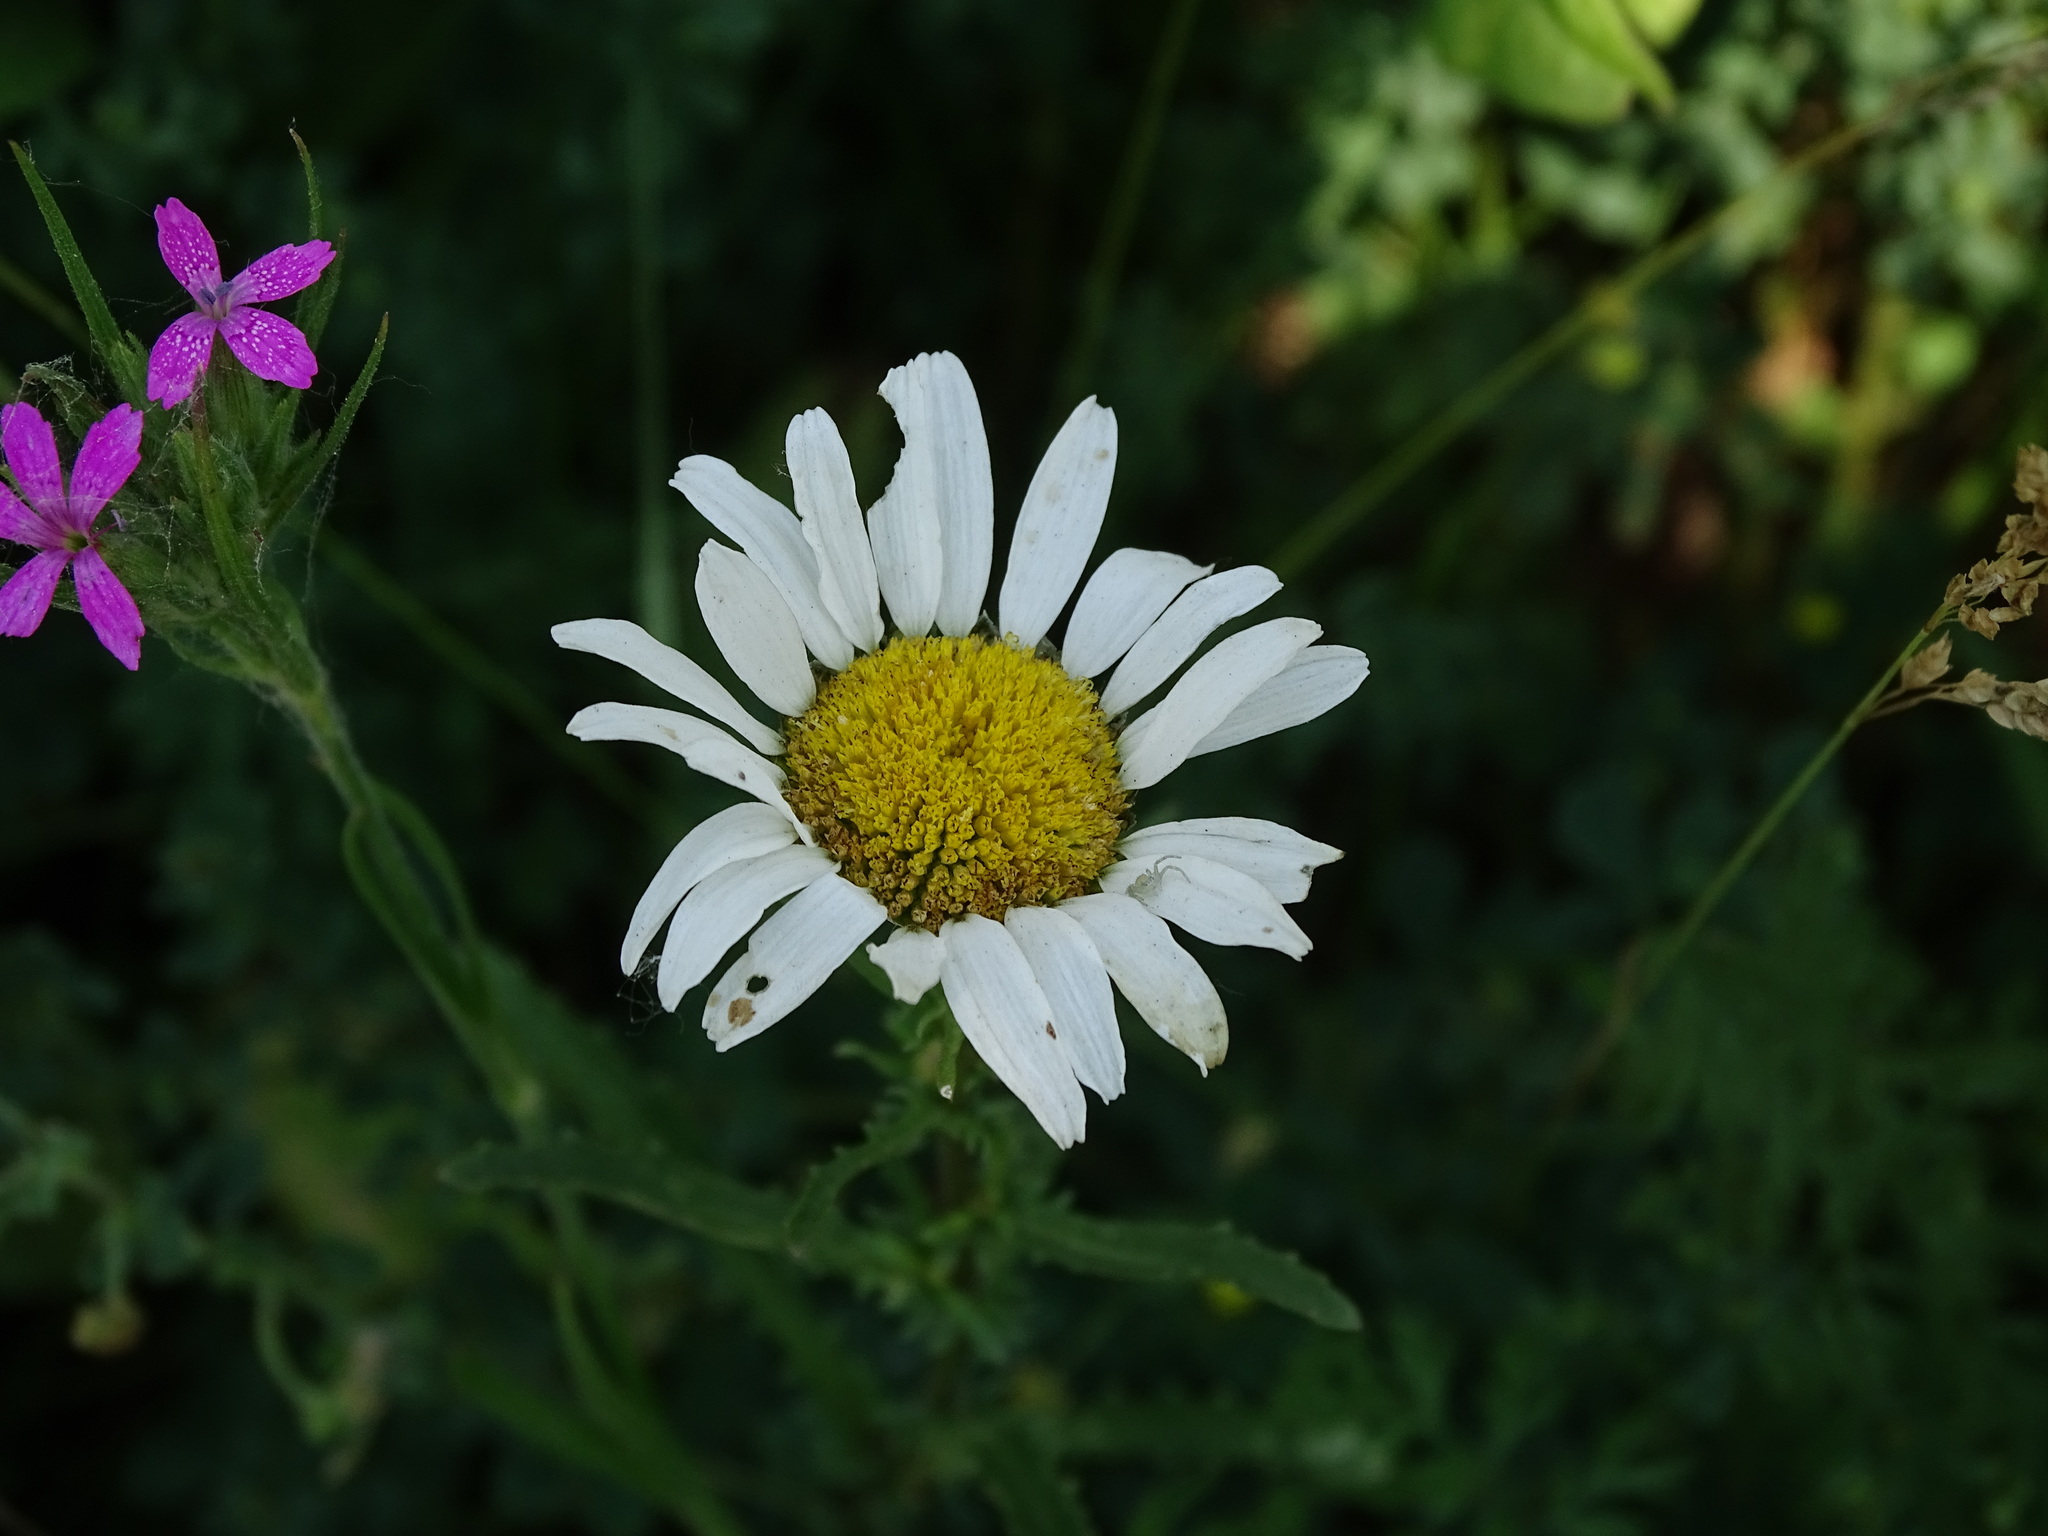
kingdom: Plantae
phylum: Tracheophyta
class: Magnoliopsida
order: Asterales
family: Asteraceae
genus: Leucanthemum
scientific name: Leucanthemum vulgare
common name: Oxeye daisy
